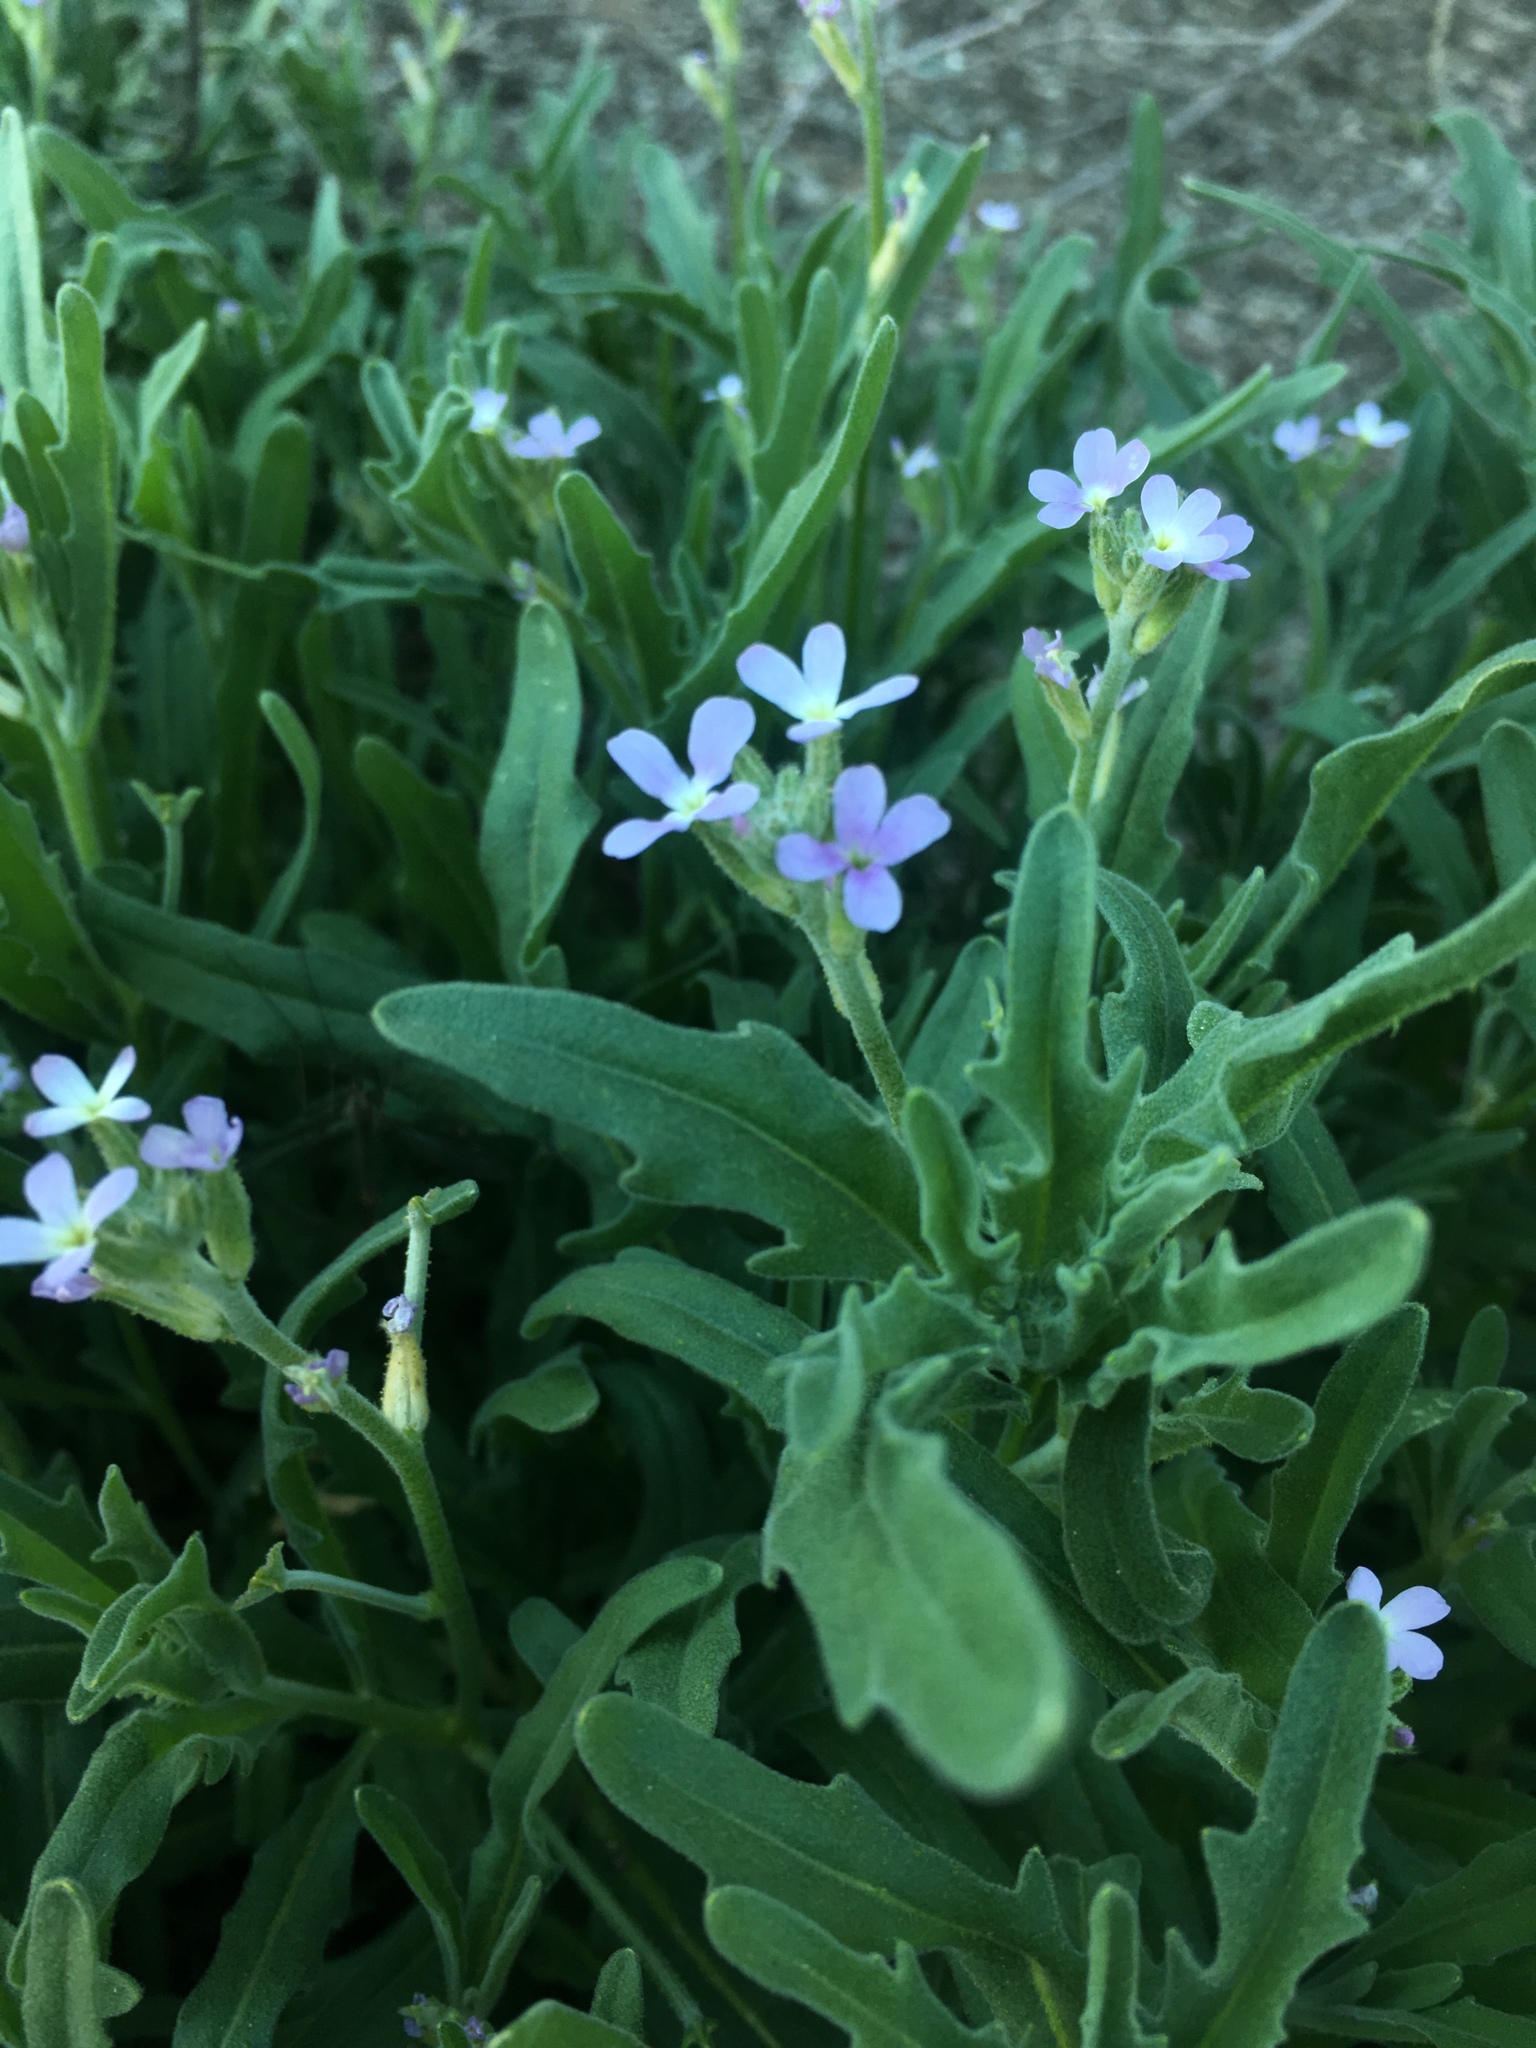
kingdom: Plantae
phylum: Tracheophyta
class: Magnoliopsida
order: Brassicales
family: Brassicaceae
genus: Matthiola
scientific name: Matthiola parviflora
